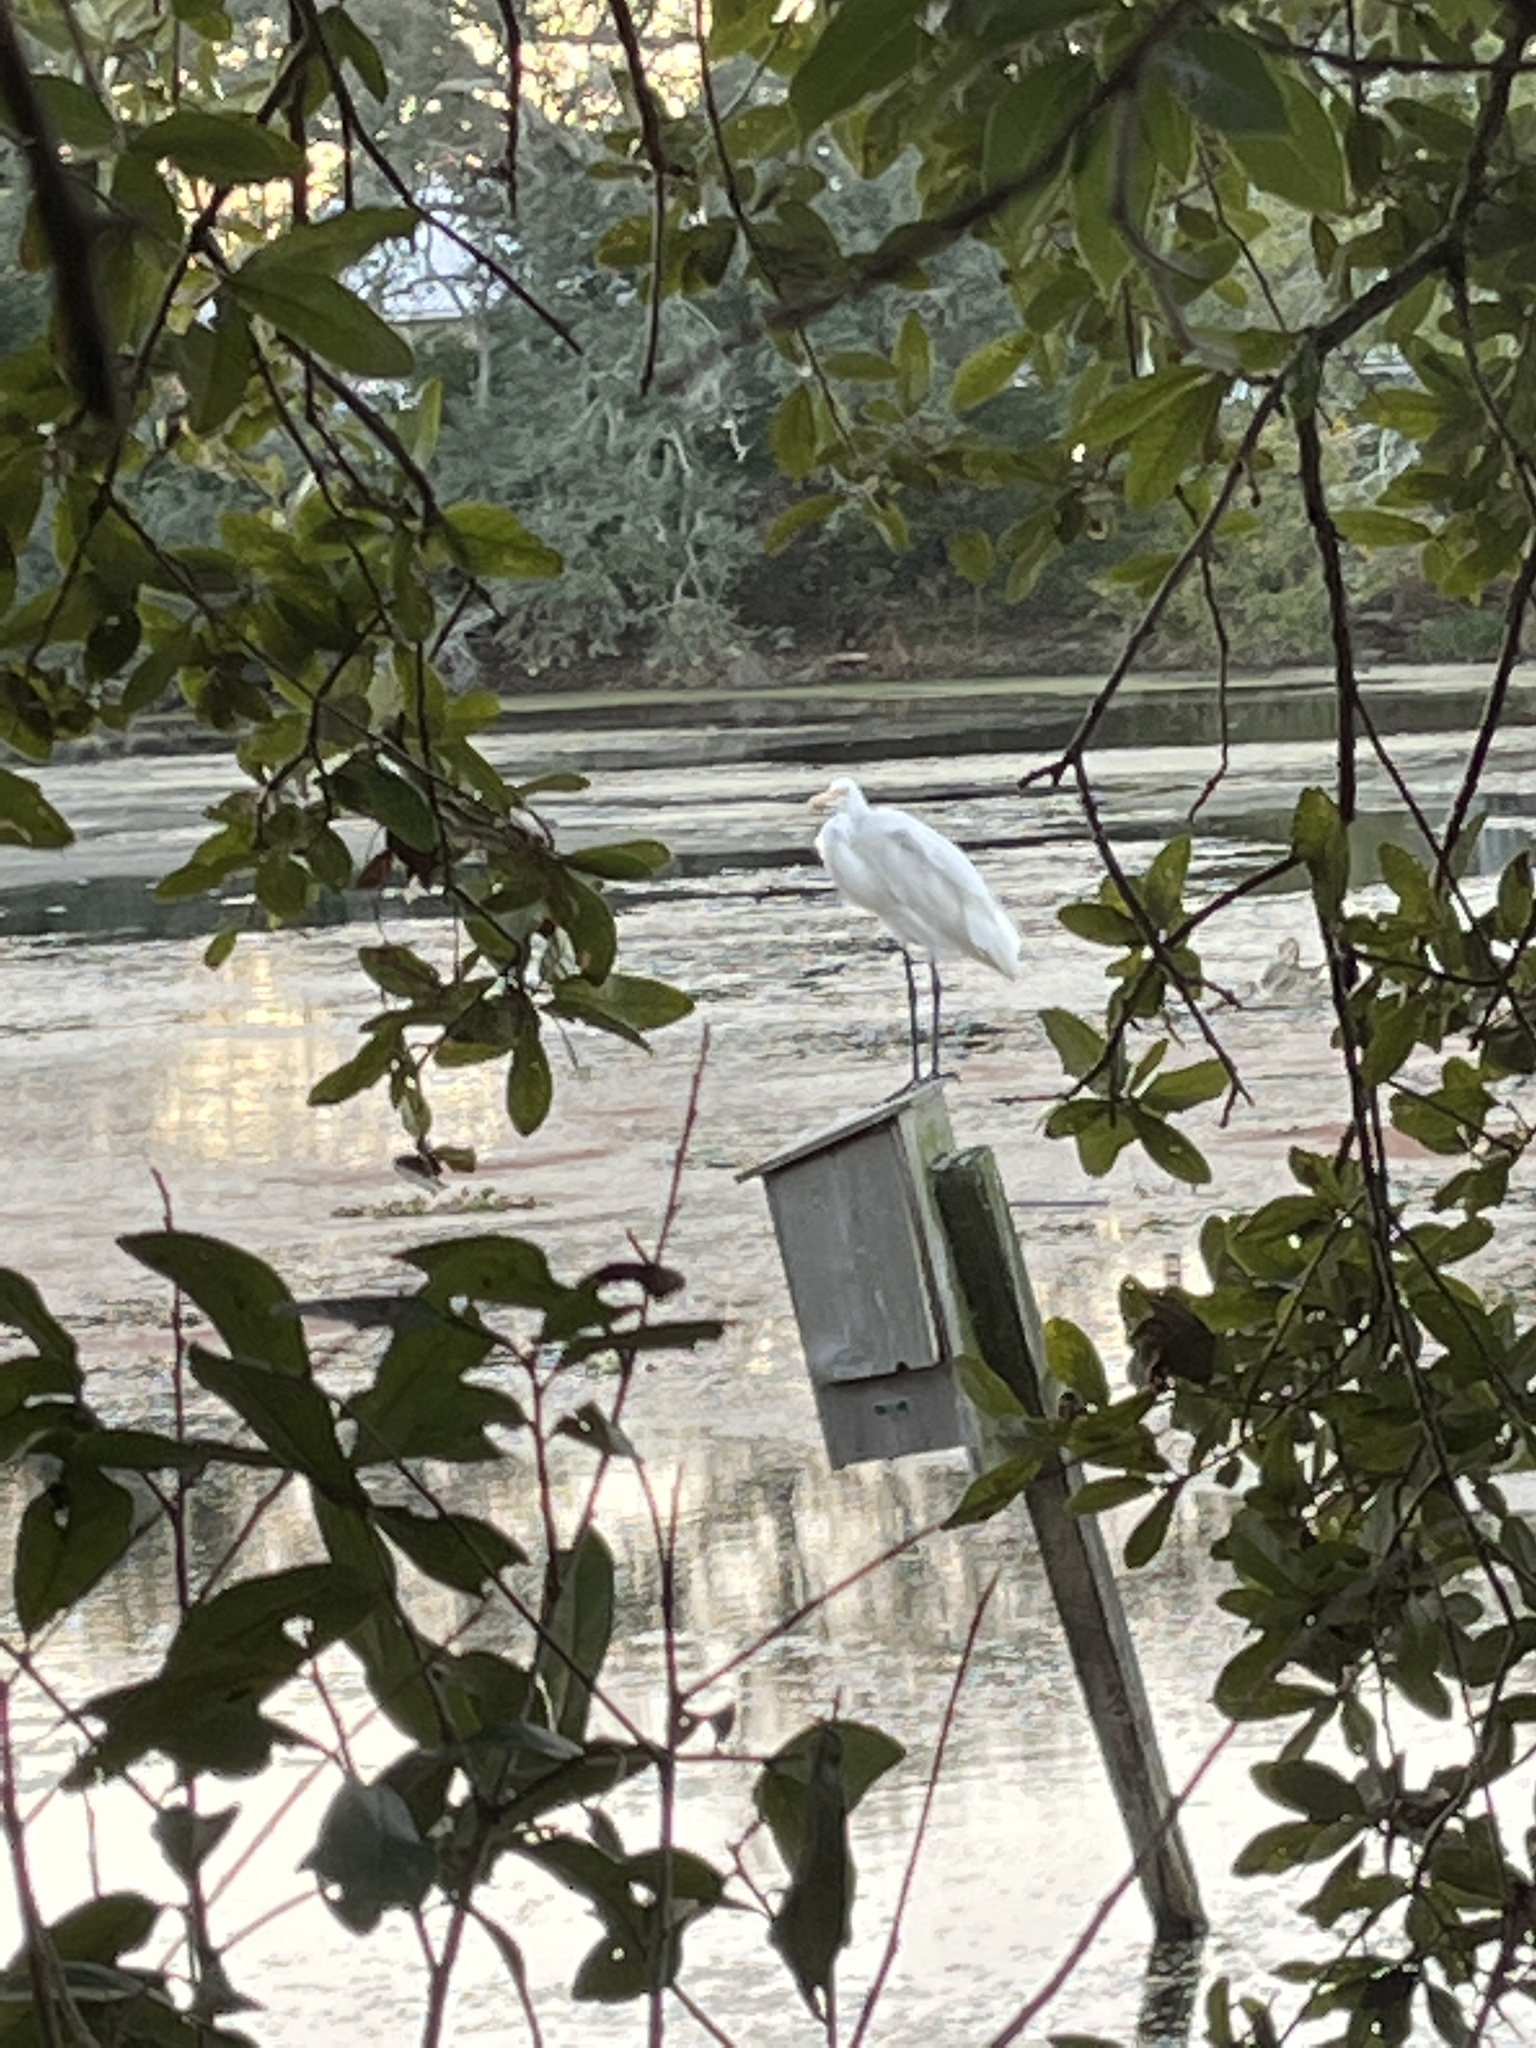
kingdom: Animalia
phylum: Chordata
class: Aves
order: Pelecaniformes
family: Ardeidae
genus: Ardea
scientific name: Ardea alba
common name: Great egret
